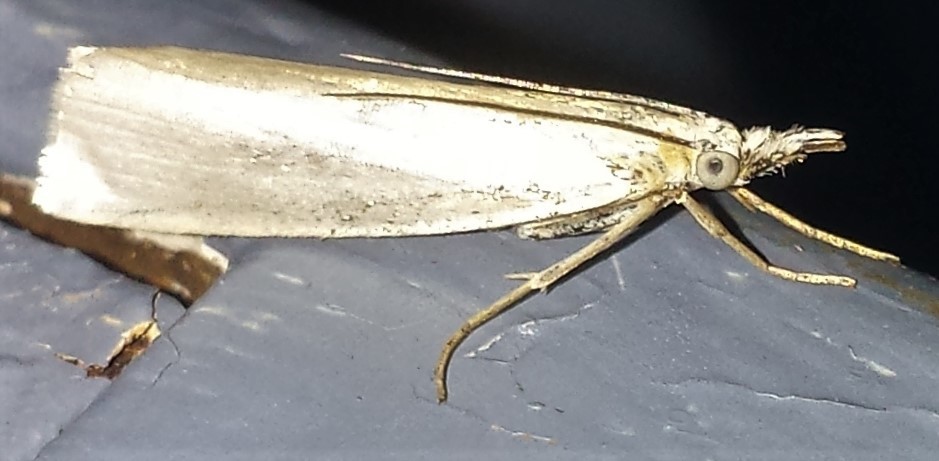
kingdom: Animalia
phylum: Arthropoda
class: Insecta
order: Lepidoptera
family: Crambidae
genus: Crambus
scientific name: Crambus perlellus
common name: Yellow satin veneer
